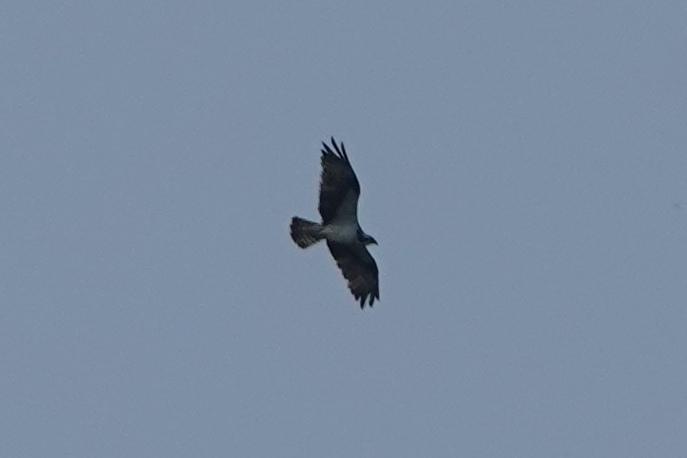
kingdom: Animalia
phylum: Chordata
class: Aves
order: Accipitriformes
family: Pandionidae
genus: Pandion
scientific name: Pandion haliaetus
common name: Osprey
